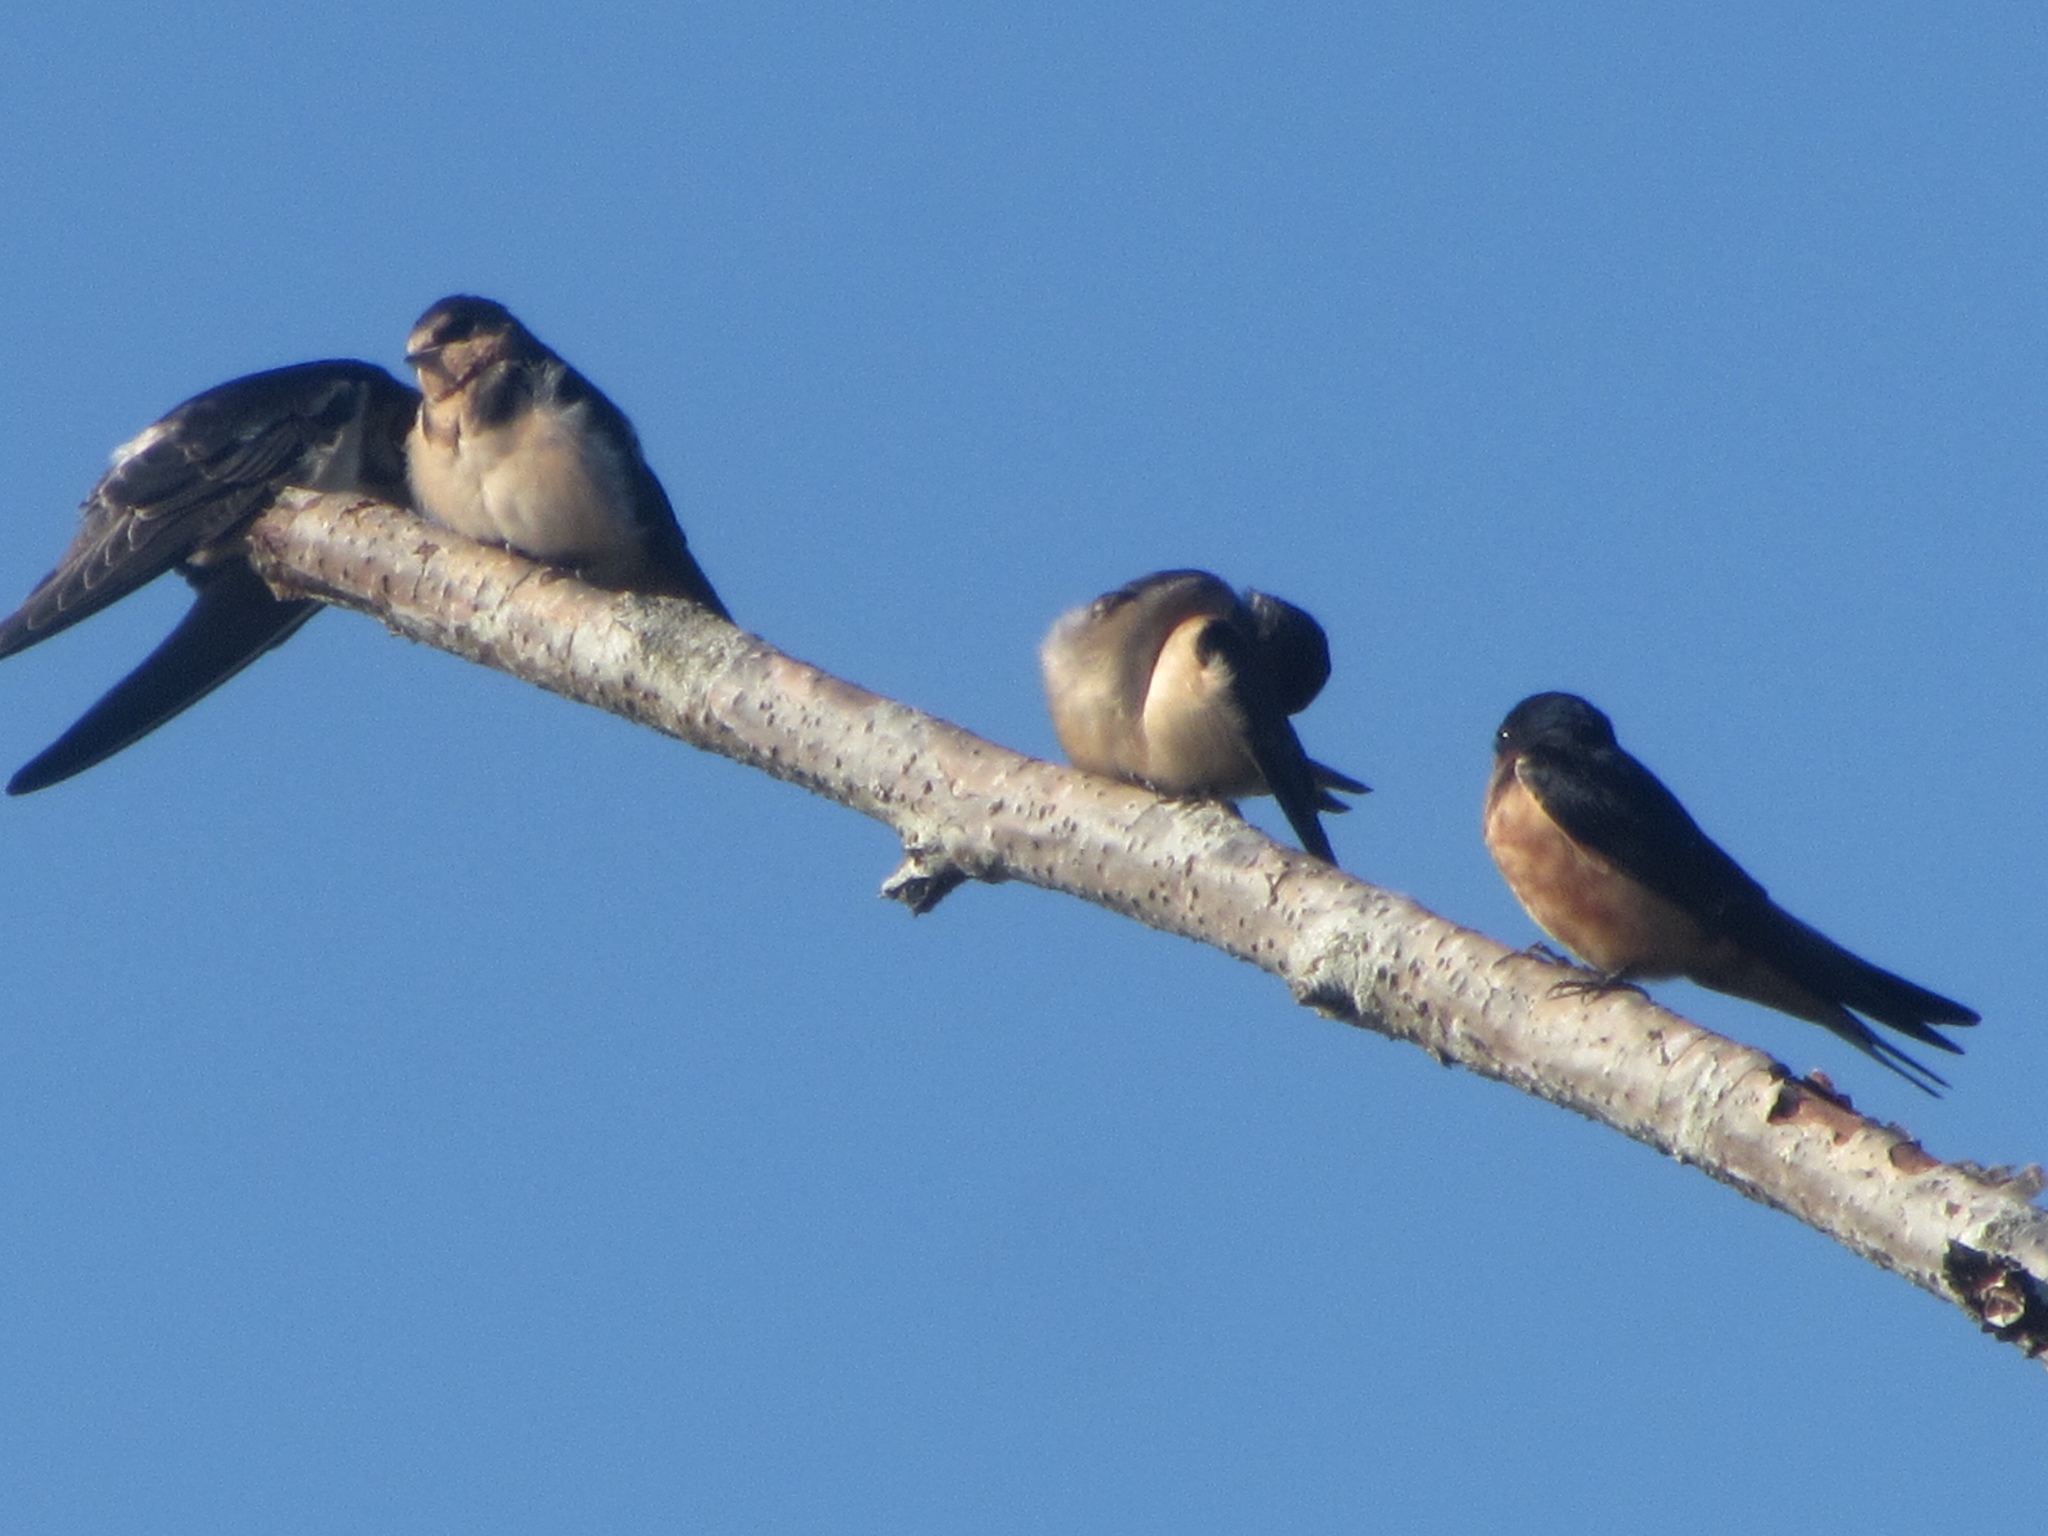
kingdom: Animalia
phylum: Chordata
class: Aves
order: Passeriformes
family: Hirundinidae
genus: Hirundo
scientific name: Hirundo rustica
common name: Barn swallow
